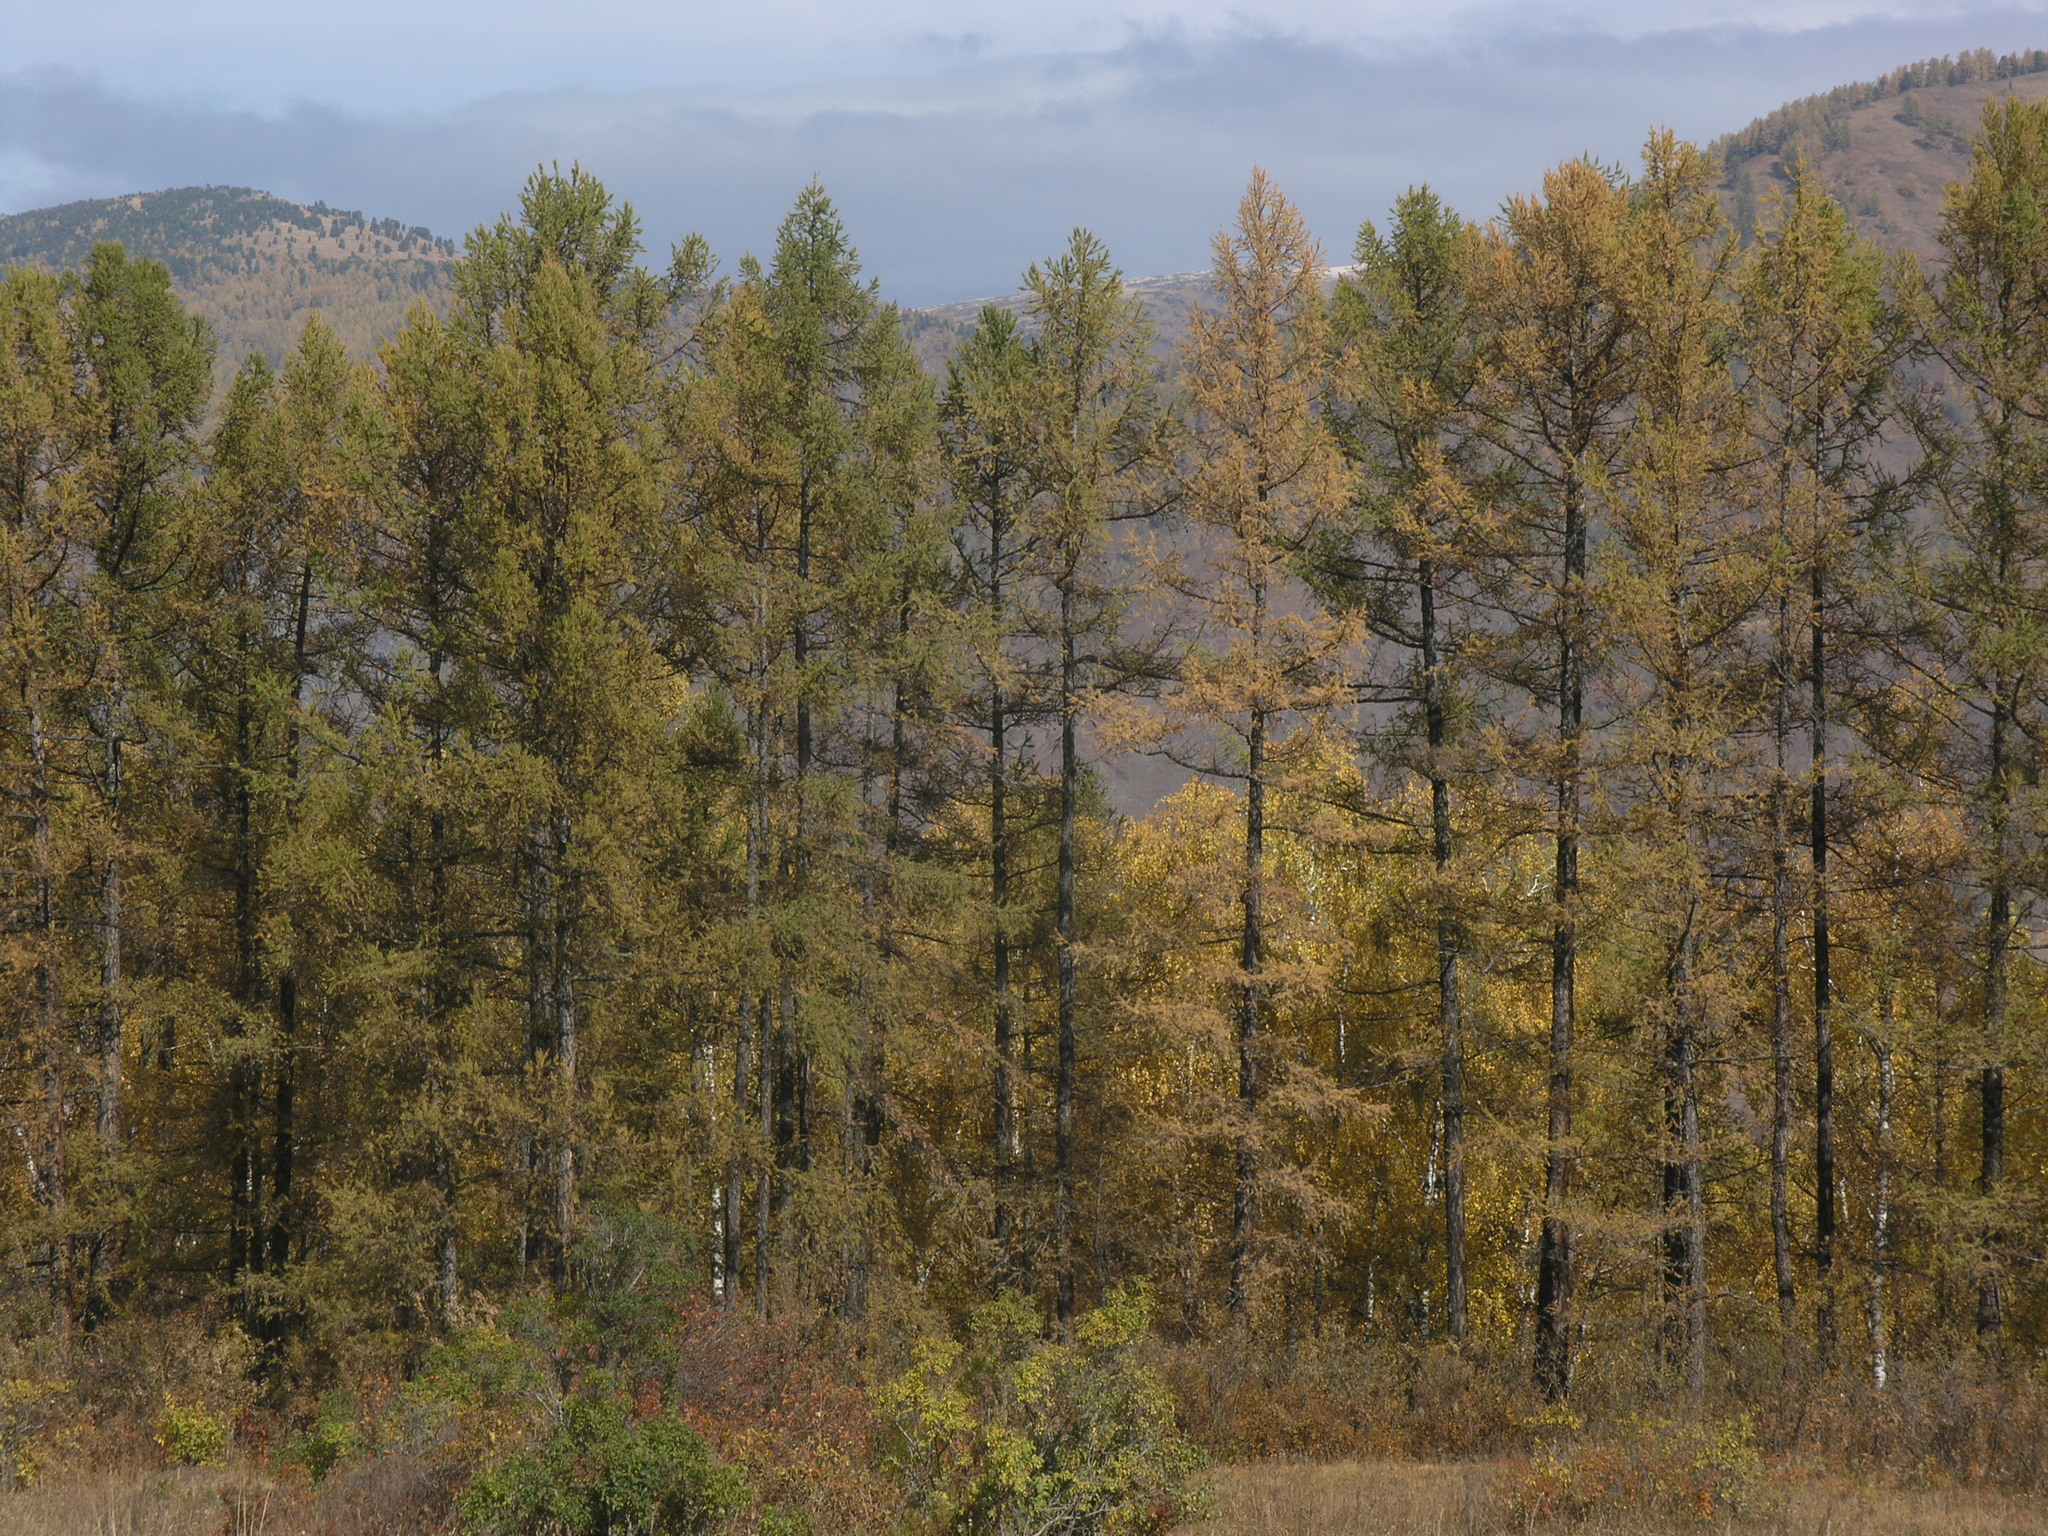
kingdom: Plantae
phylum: Tracheophyta
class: Pinopsida
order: Pinales
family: Pinaceae
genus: Larix
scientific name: Larix sibirica
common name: Siberian larch
